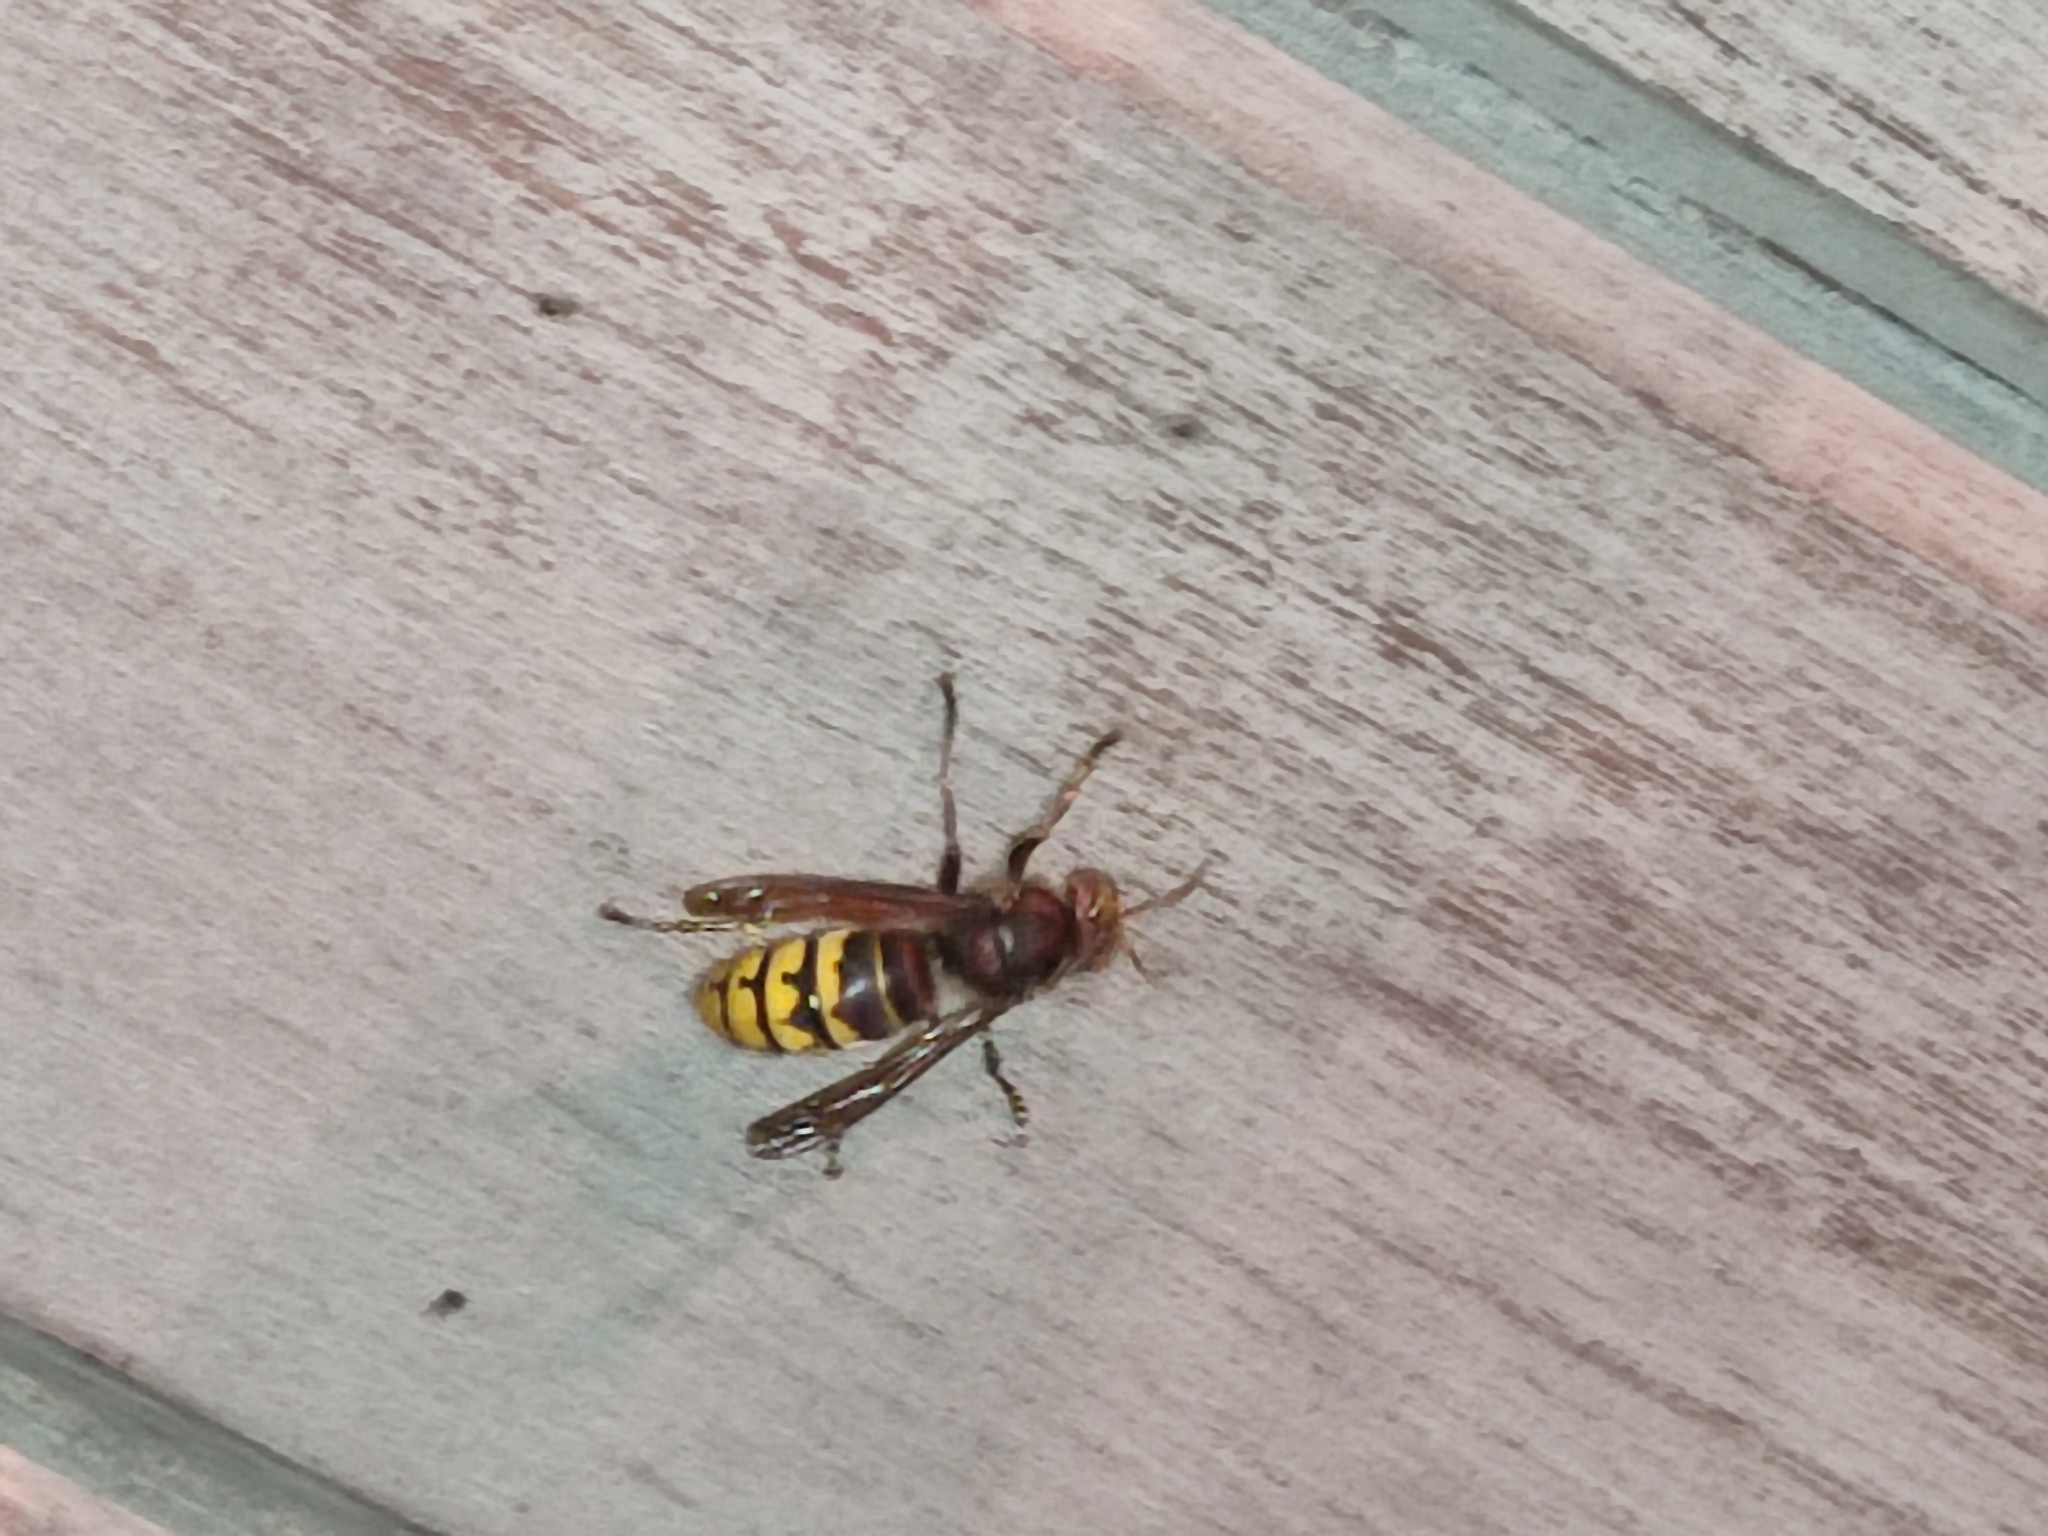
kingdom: Animalia
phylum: Arthropoda
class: Insecta
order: Hymenoptera
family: Vespidae
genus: Vespa
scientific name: Vespa crabro
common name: Hornet
